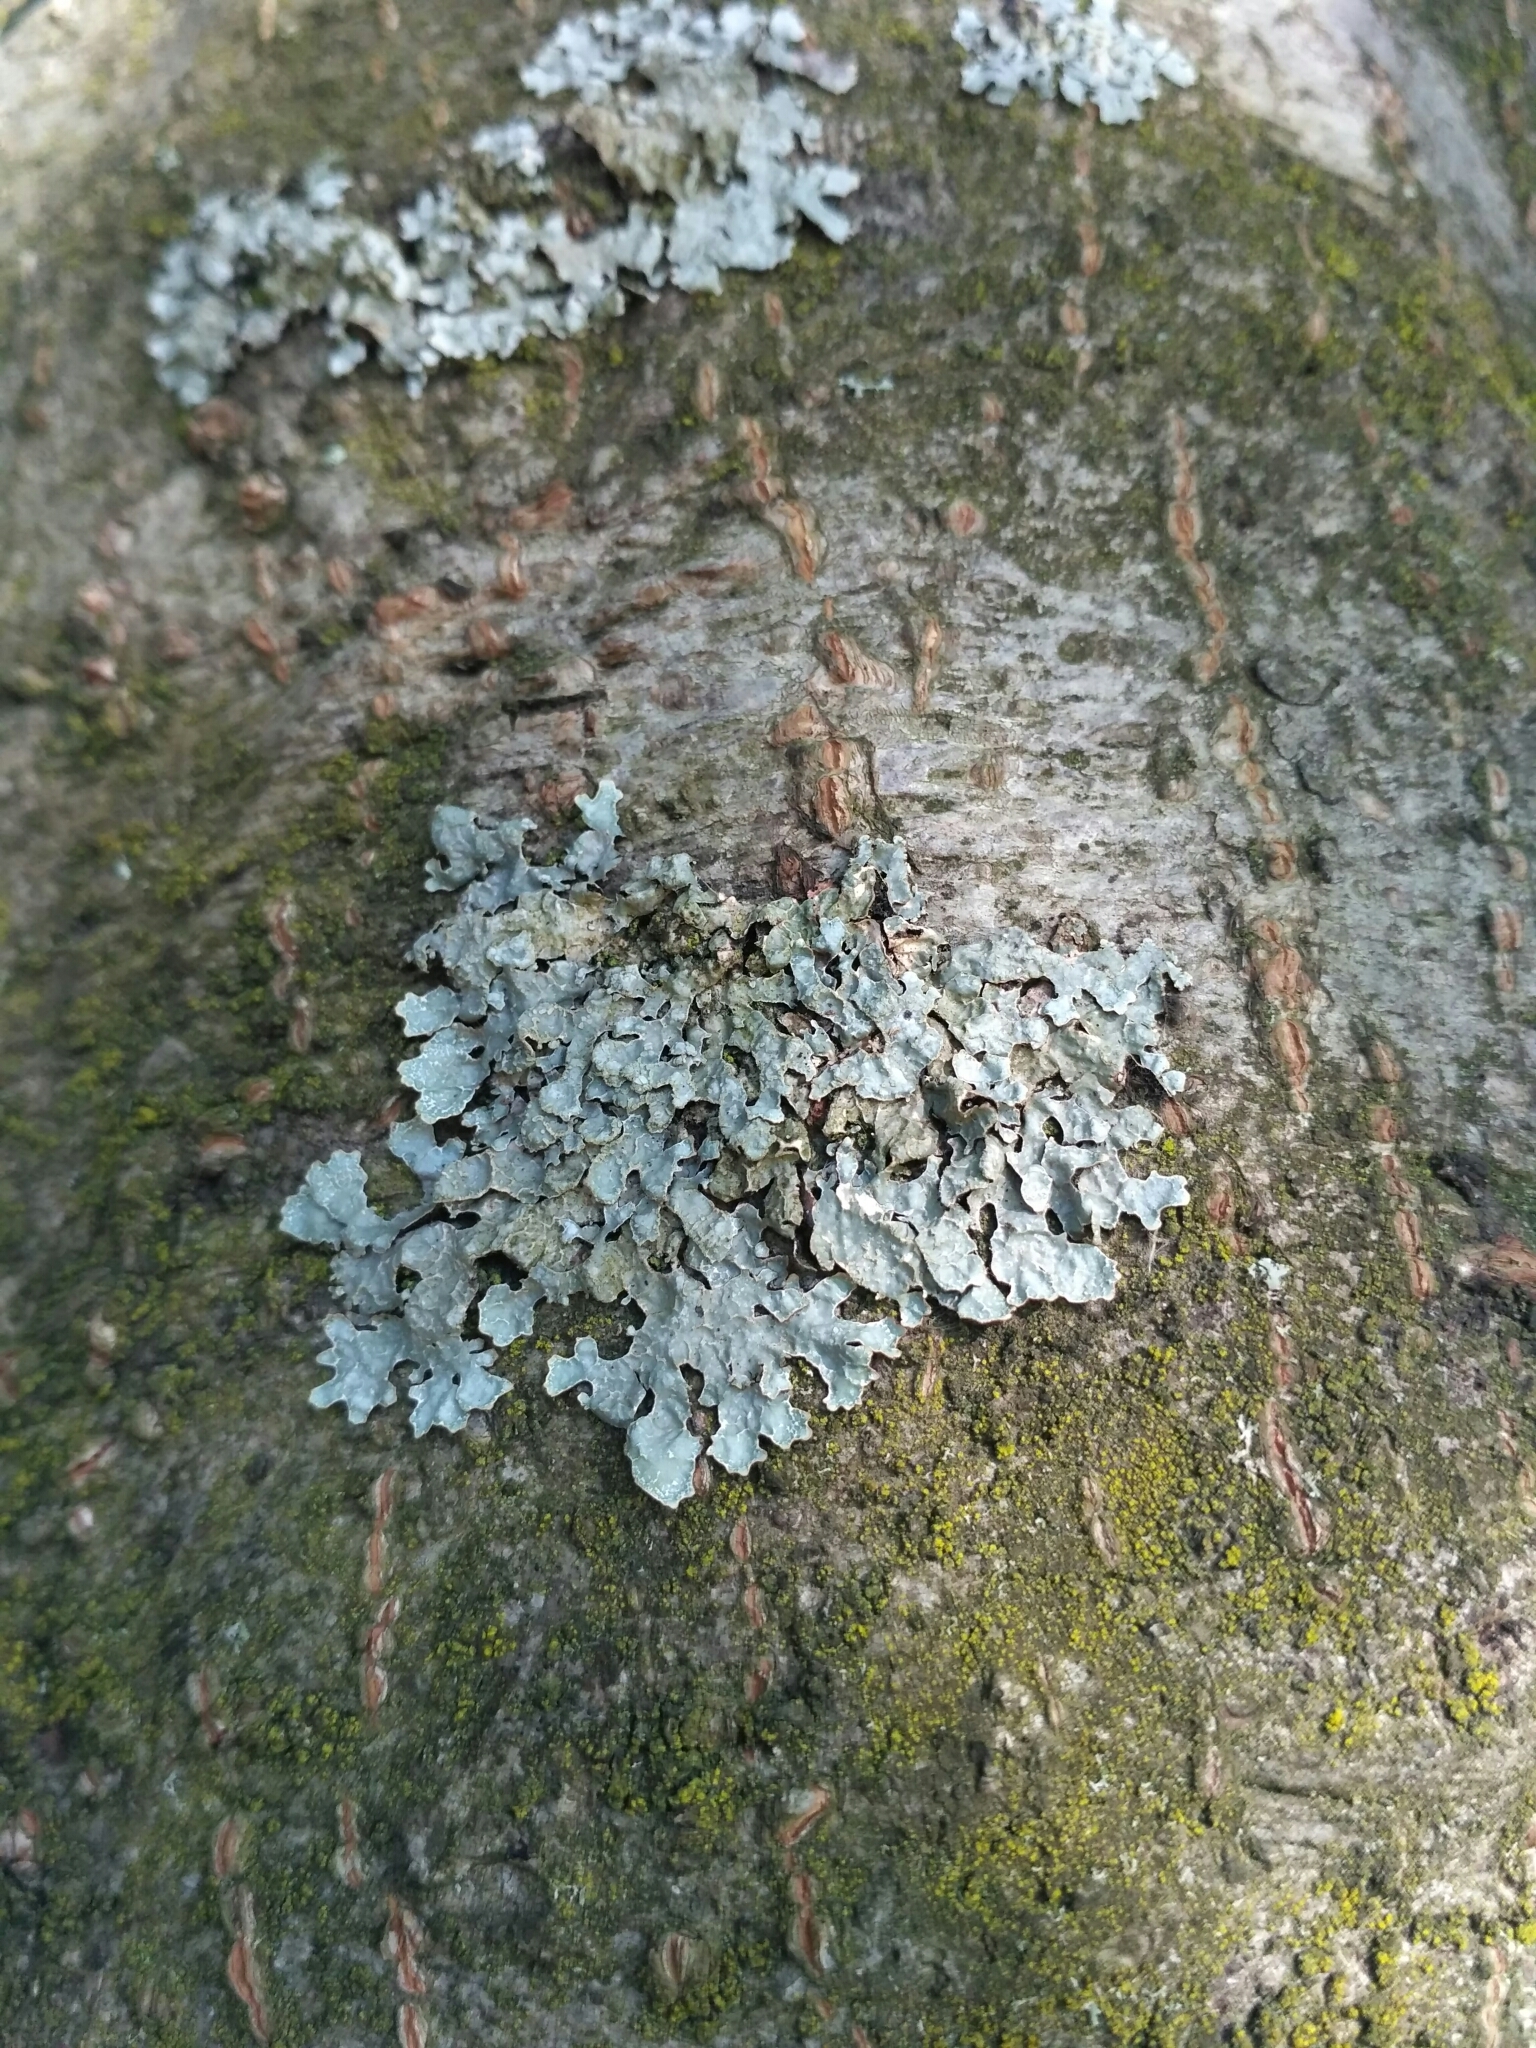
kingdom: Fungi
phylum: Ascomycota
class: Lecanoromycetes
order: Lecanorales
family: Parmeliaceae
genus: Parmelia
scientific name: Parmelia sulcata
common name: Netted shield lichen
